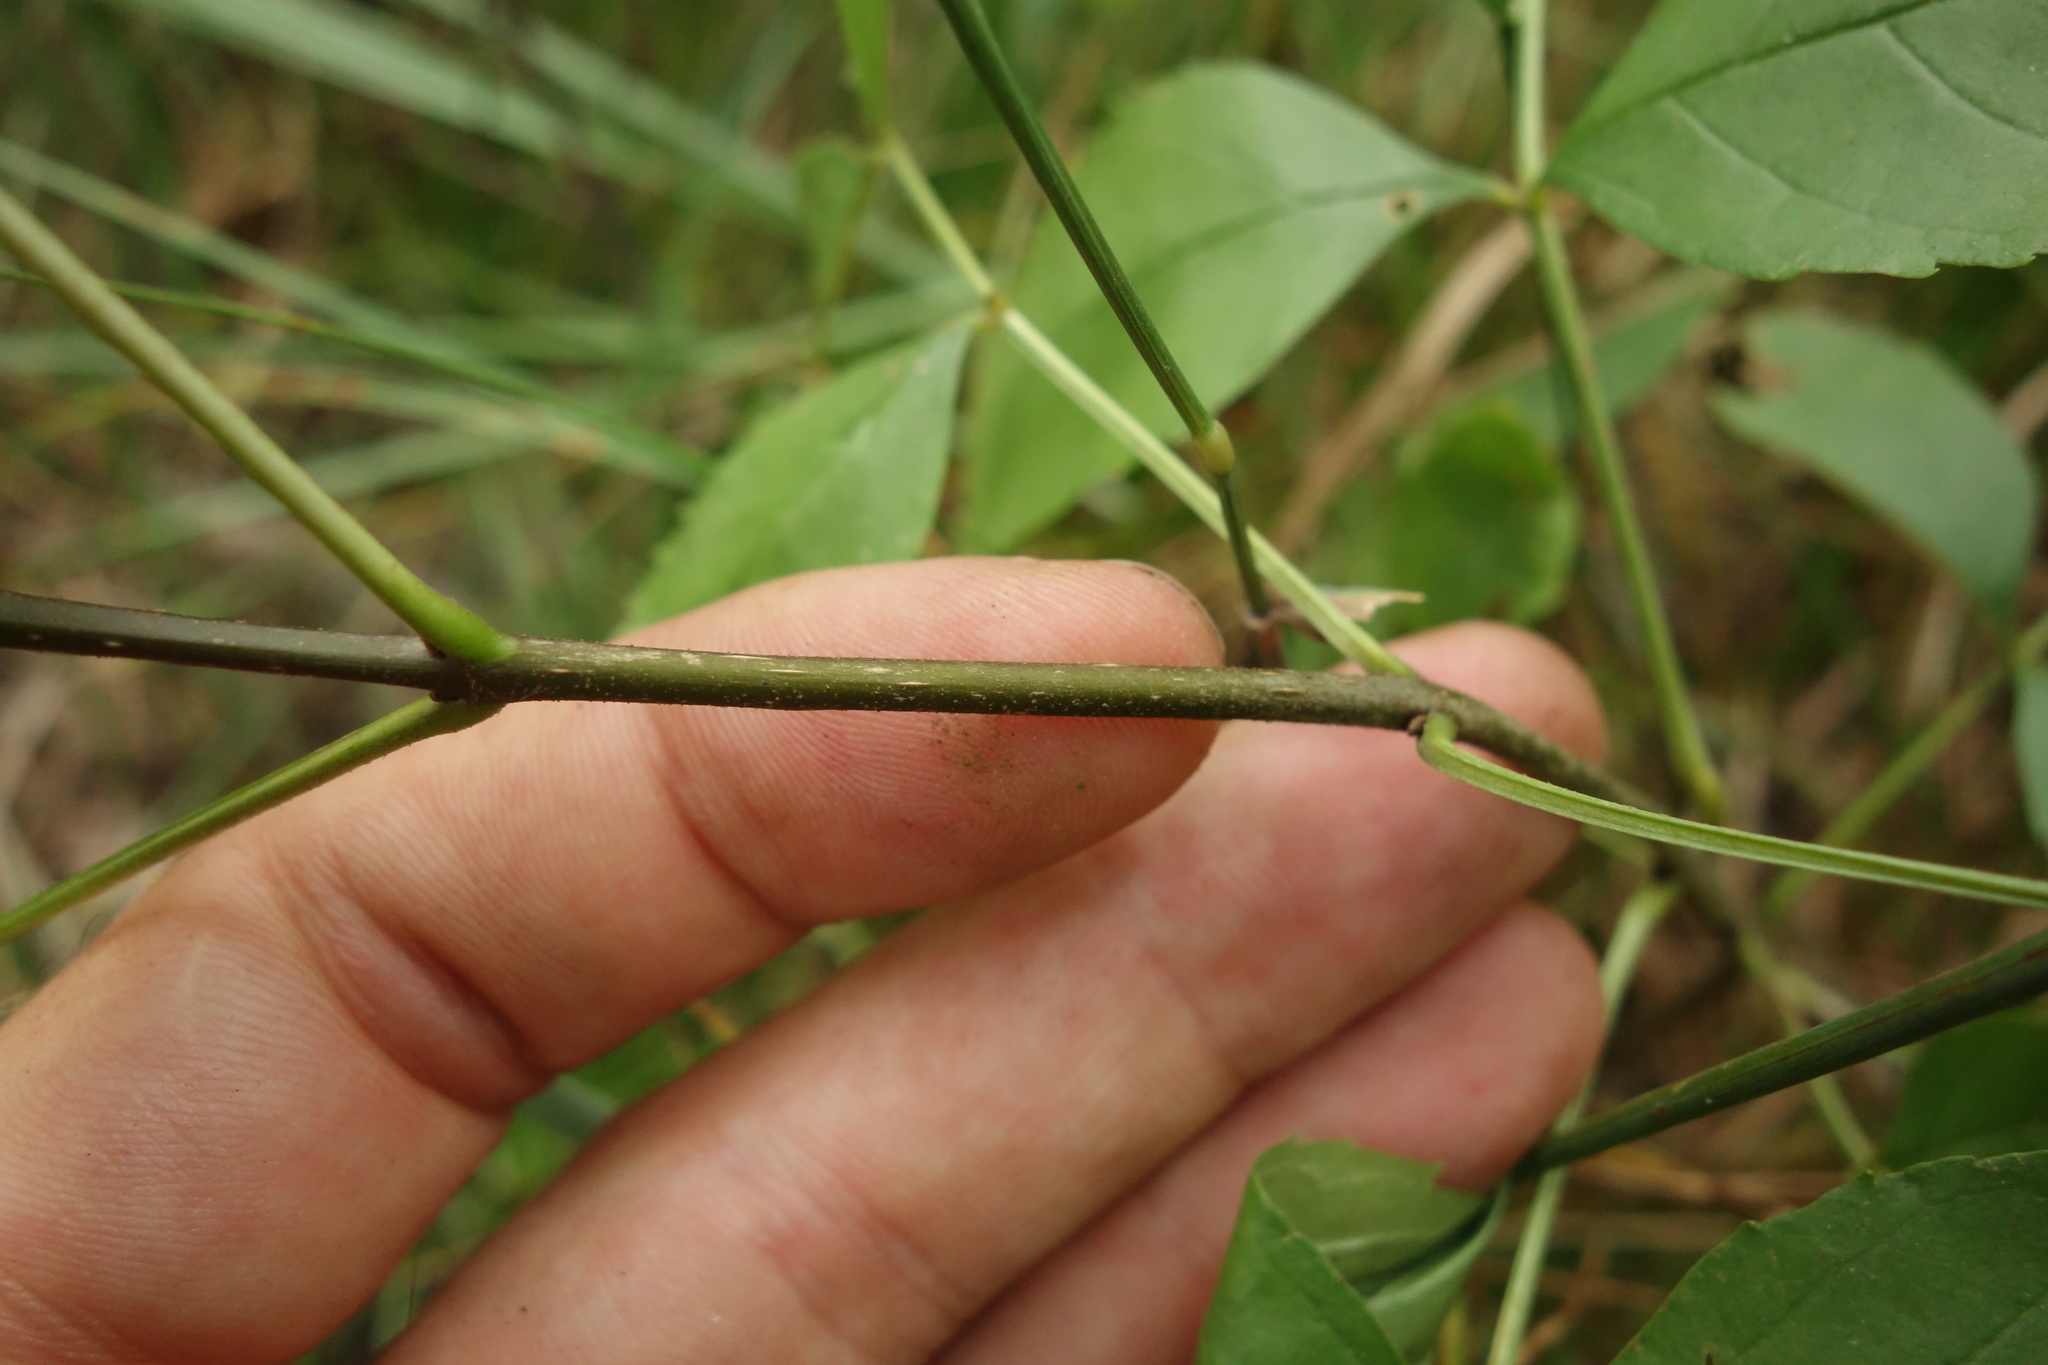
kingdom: Plantae
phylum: Tracheophyta
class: Magnoliopsida
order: Lamiales
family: Oleaceae
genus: Fraxinus
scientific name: Fraxinus pennsylvanica
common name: Green ash
